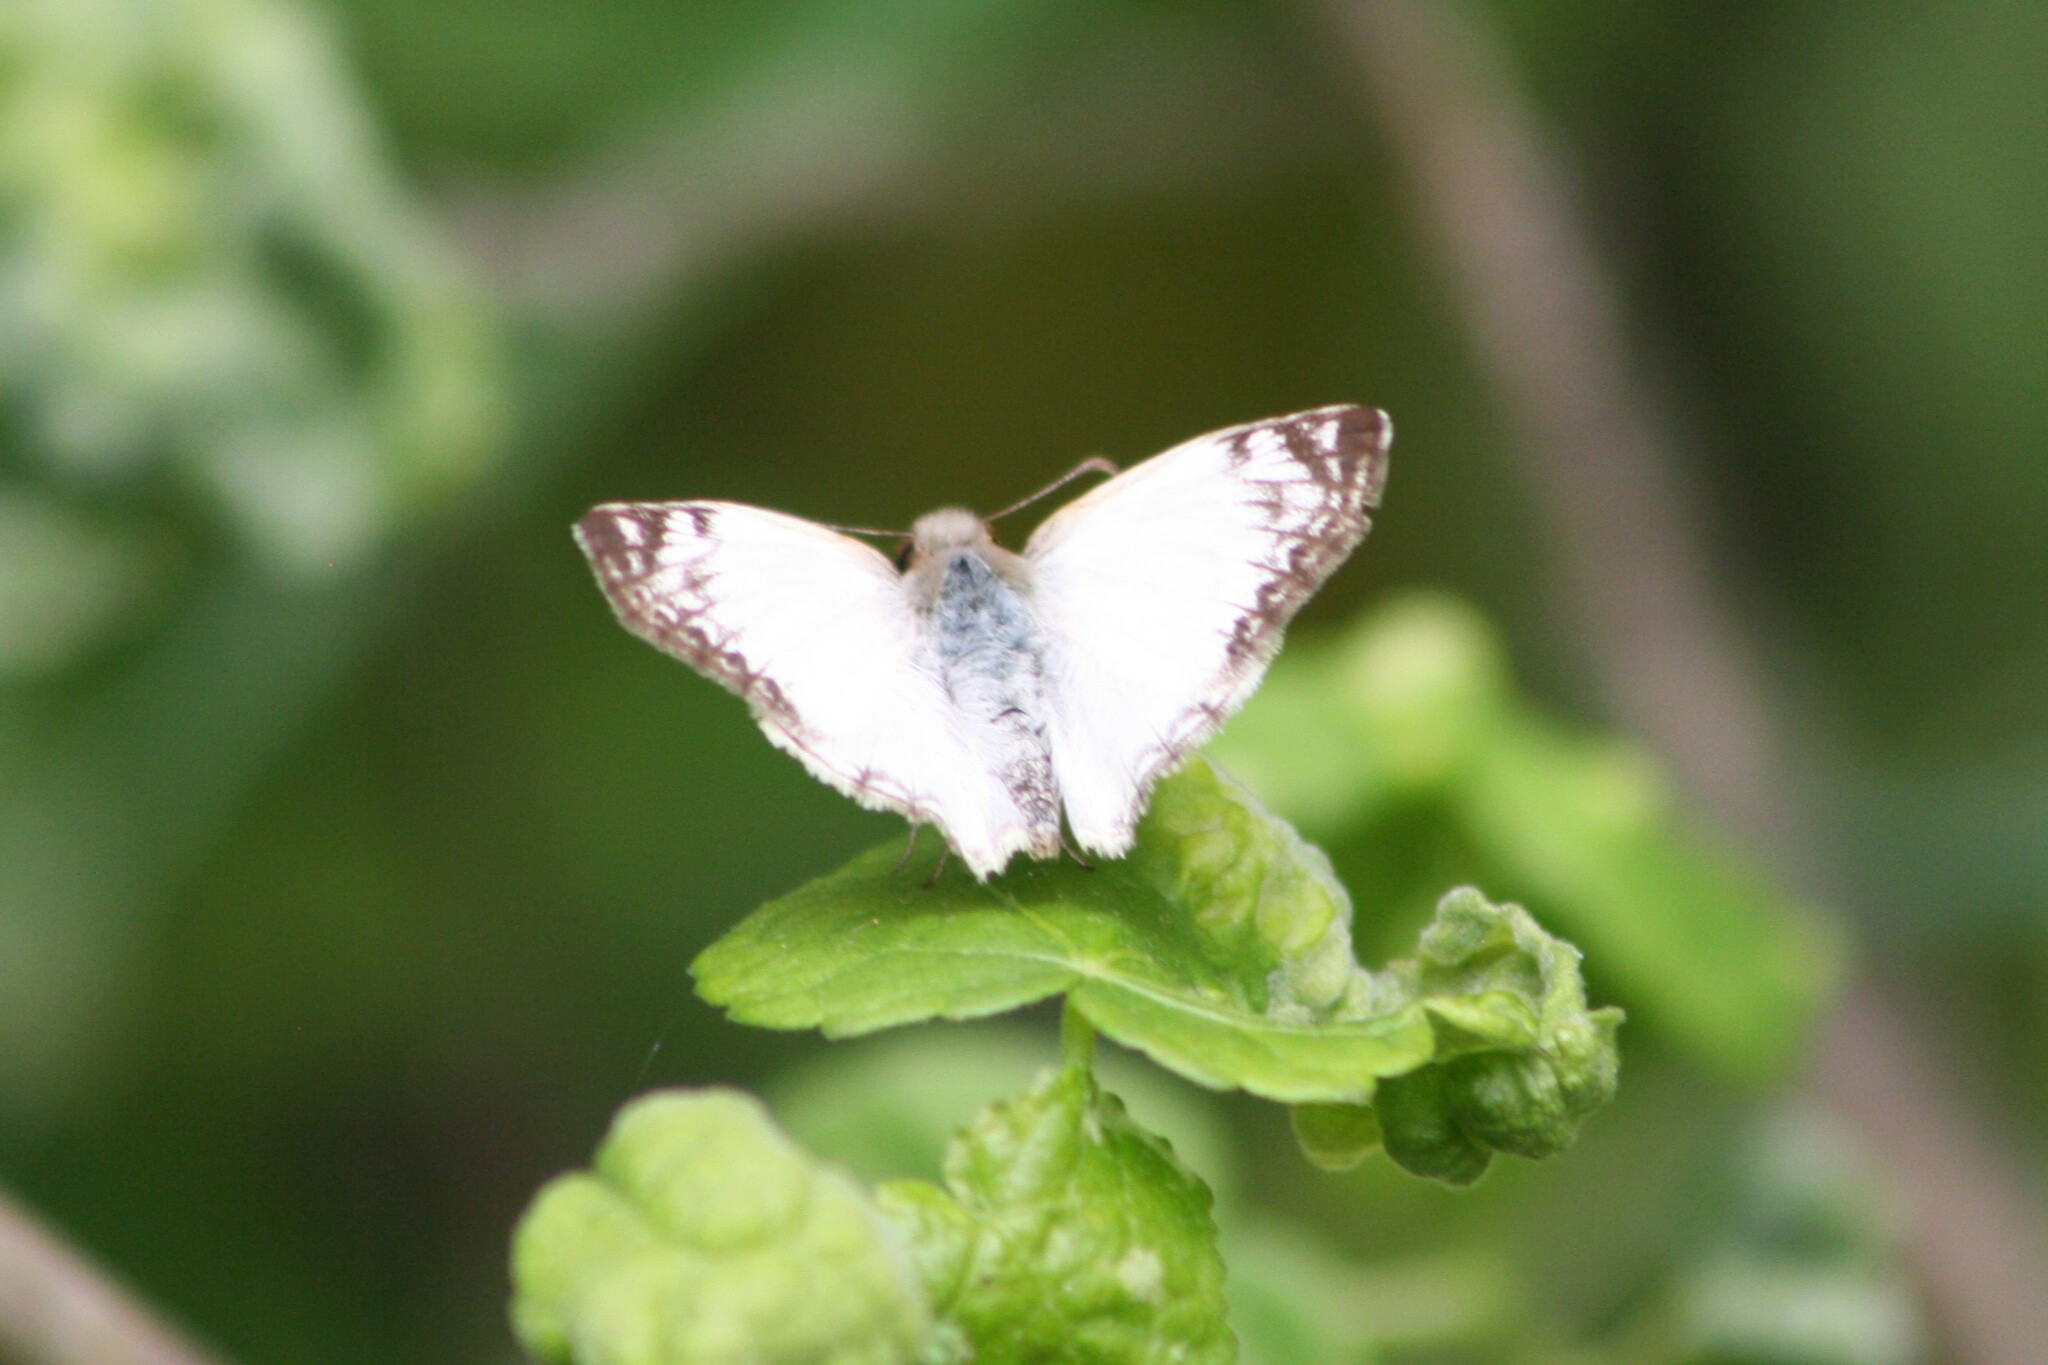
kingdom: Animalia
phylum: Arthropoda
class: Insecta
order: Lepidoptera
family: Hesperiidae
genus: Heliopetes
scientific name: Heliopetes laviana
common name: Laviana white-skipper
